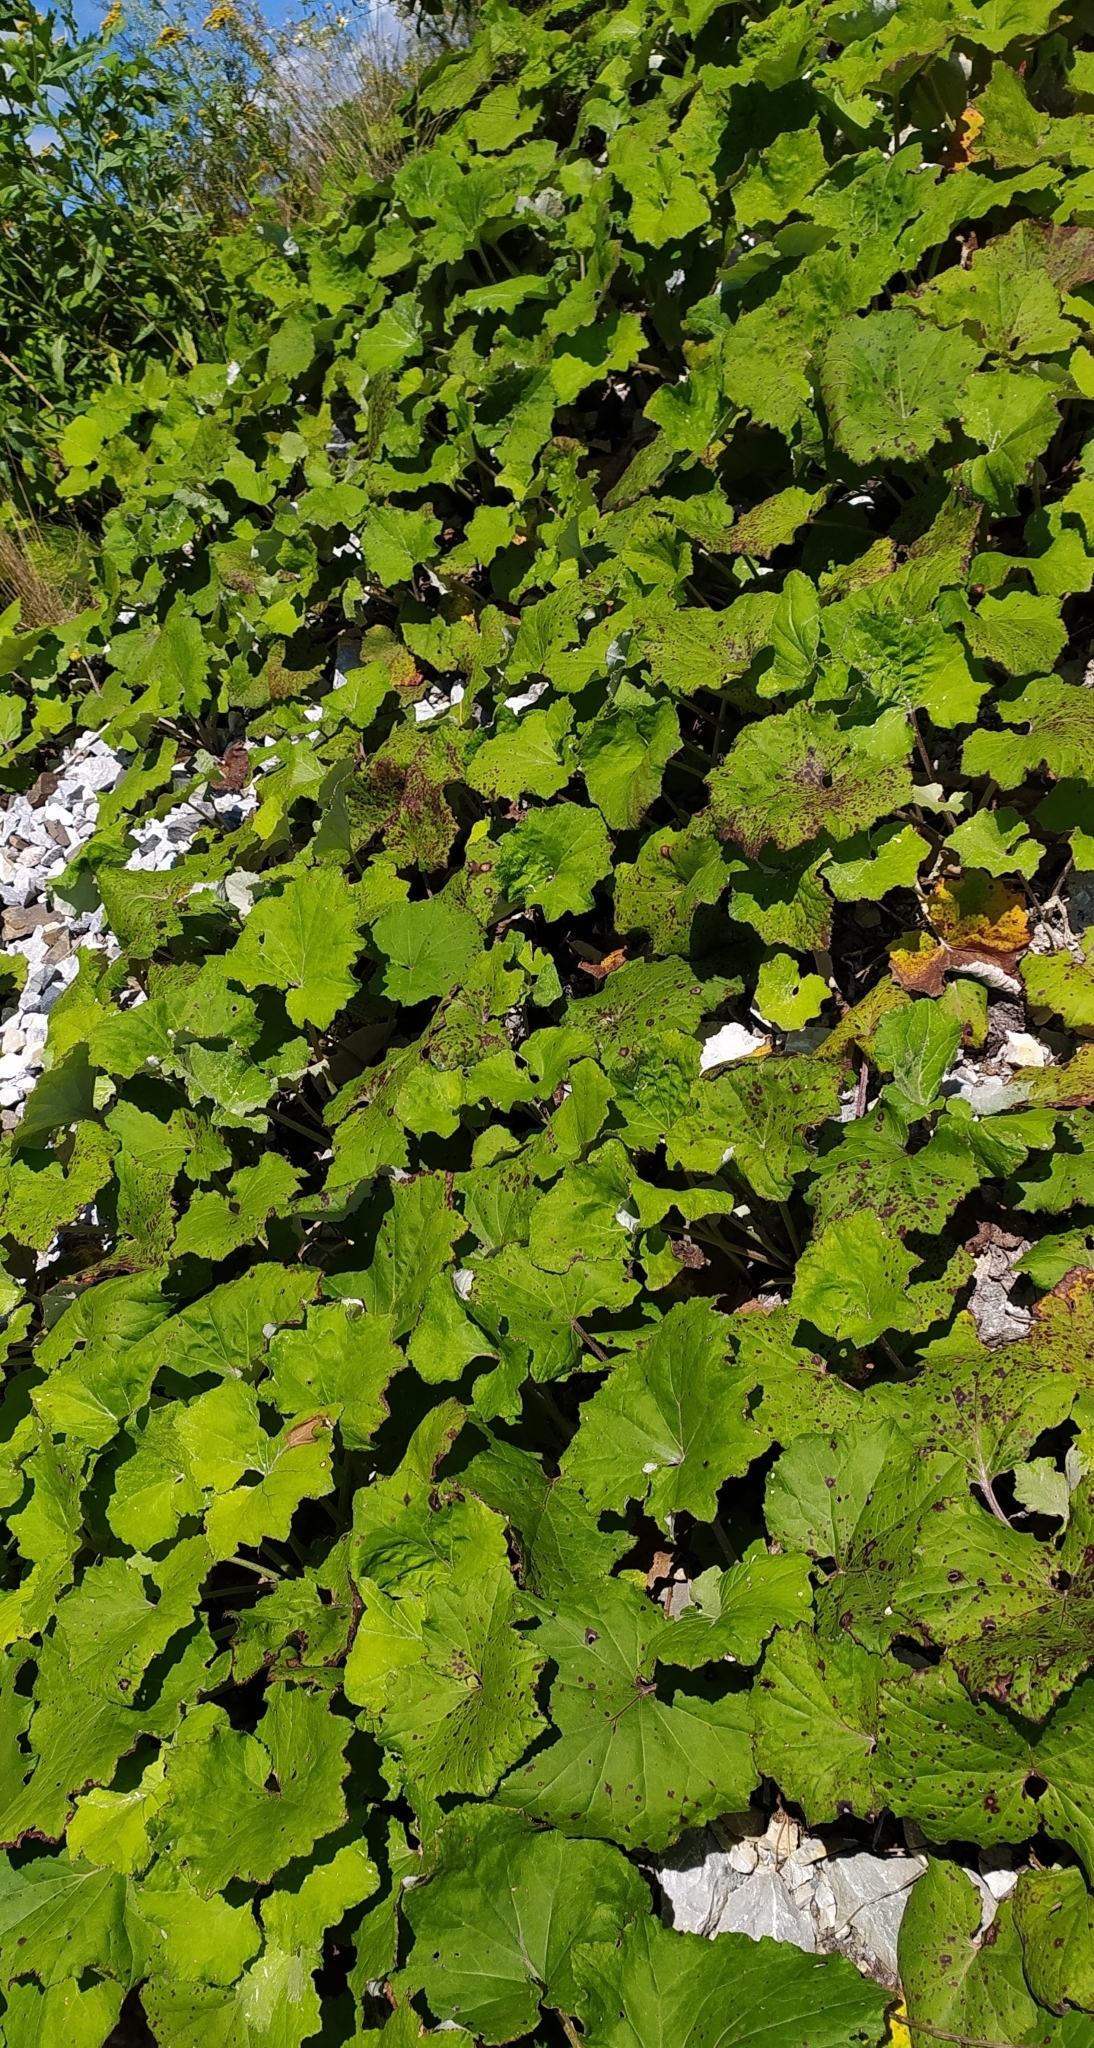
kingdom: Plantae
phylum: Tracheophyta
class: Magnoliopsida
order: Asterales
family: Asteraceae
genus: Tussilago
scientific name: Tussilago farfara
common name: Coltsfoot
